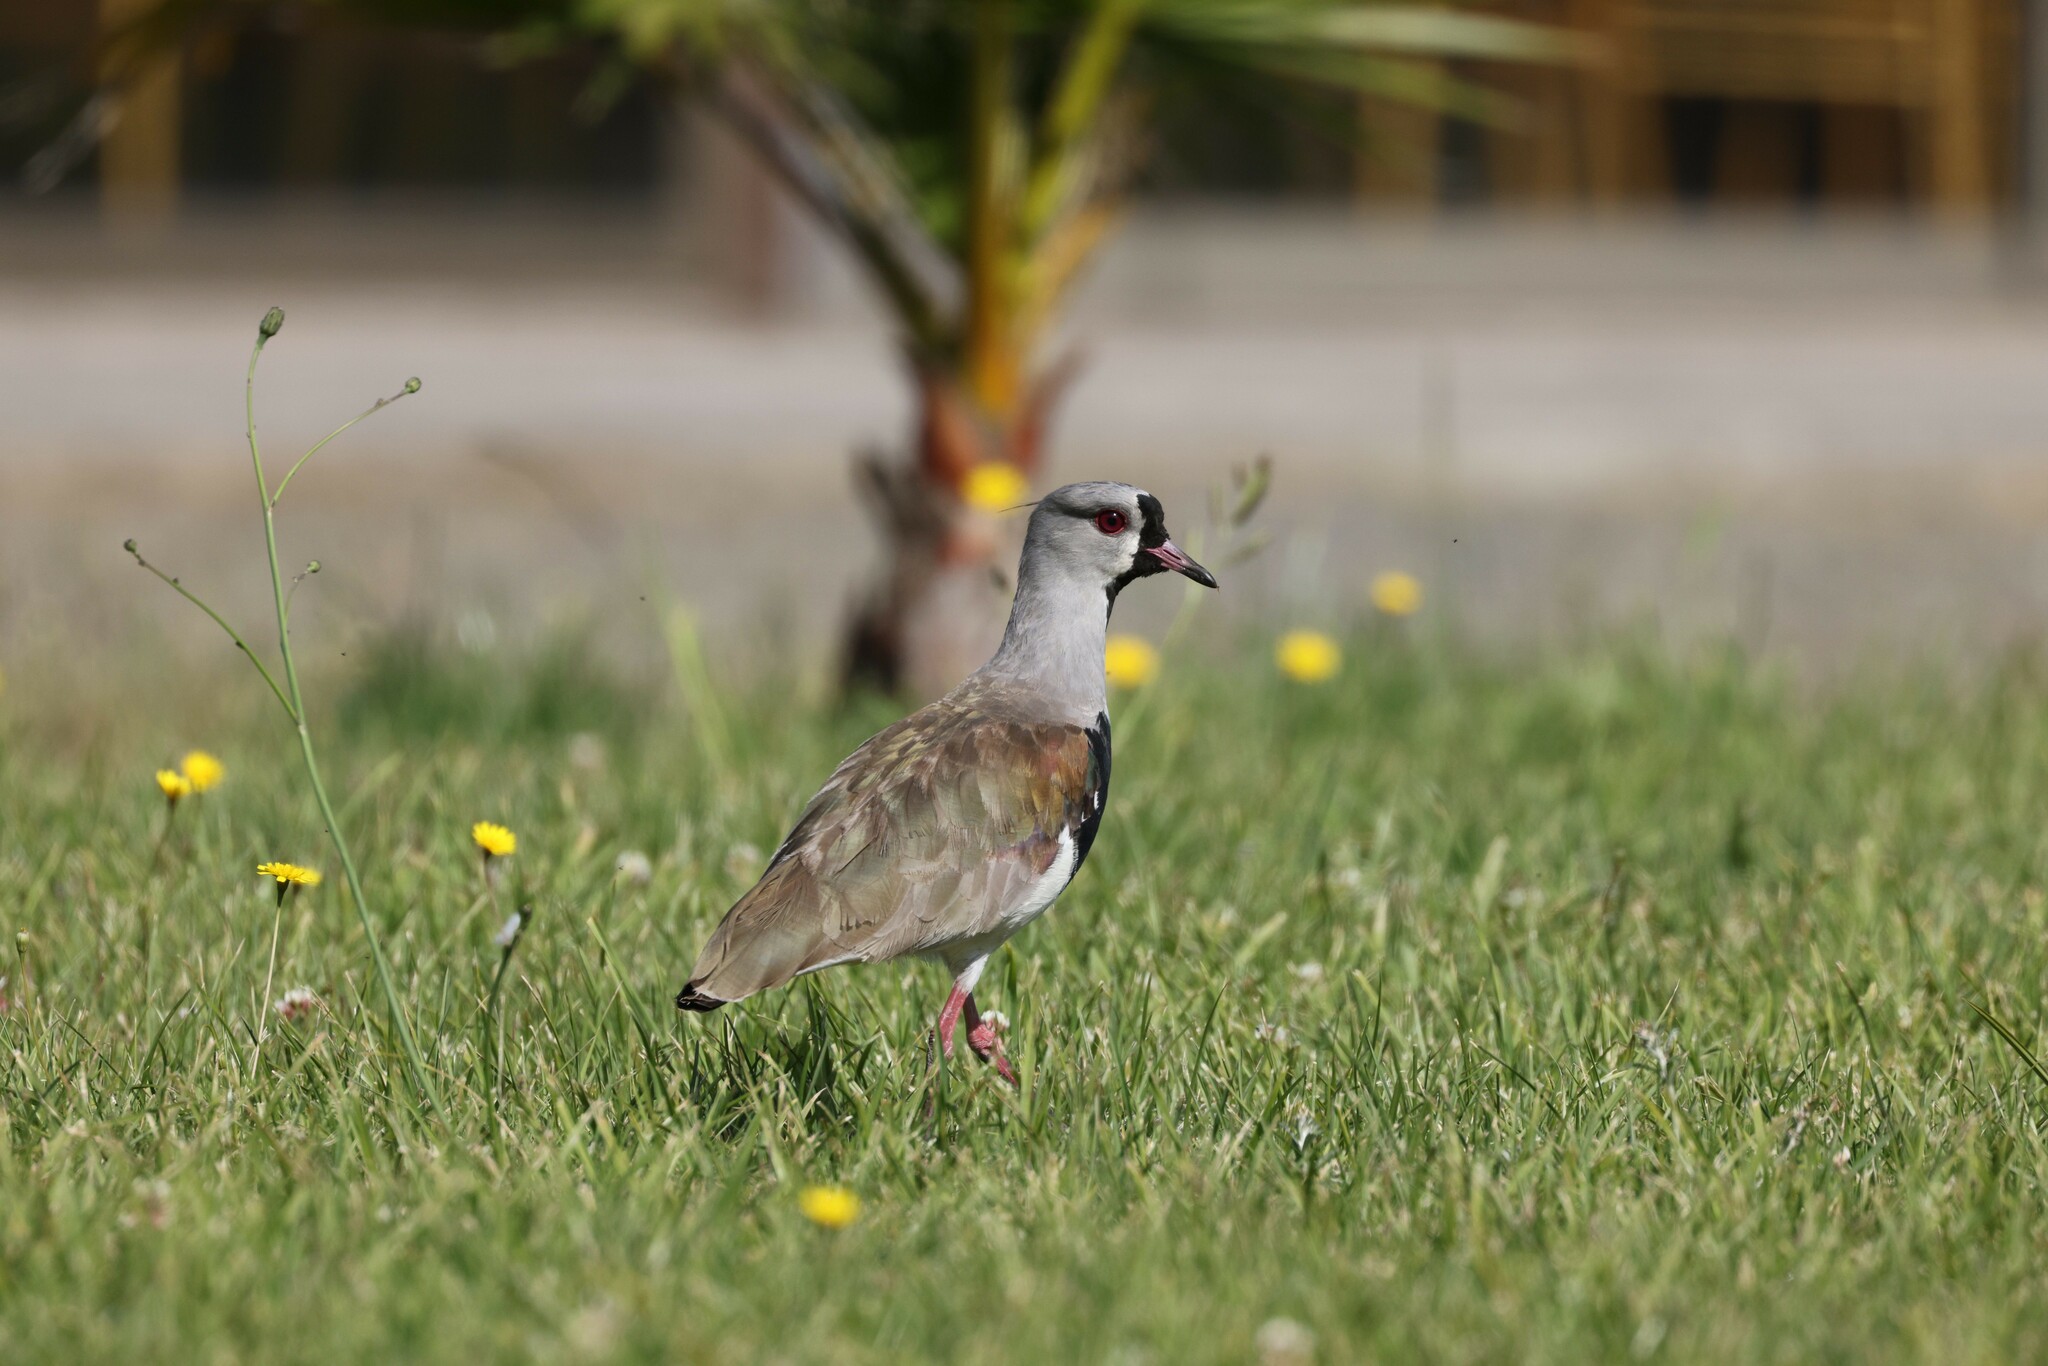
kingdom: Animalia
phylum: Chordata
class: Aves
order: Charadriiformes
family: Charadriidae
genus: Vanellus
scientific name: Vanellus chilensis
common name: Southern lapwing
